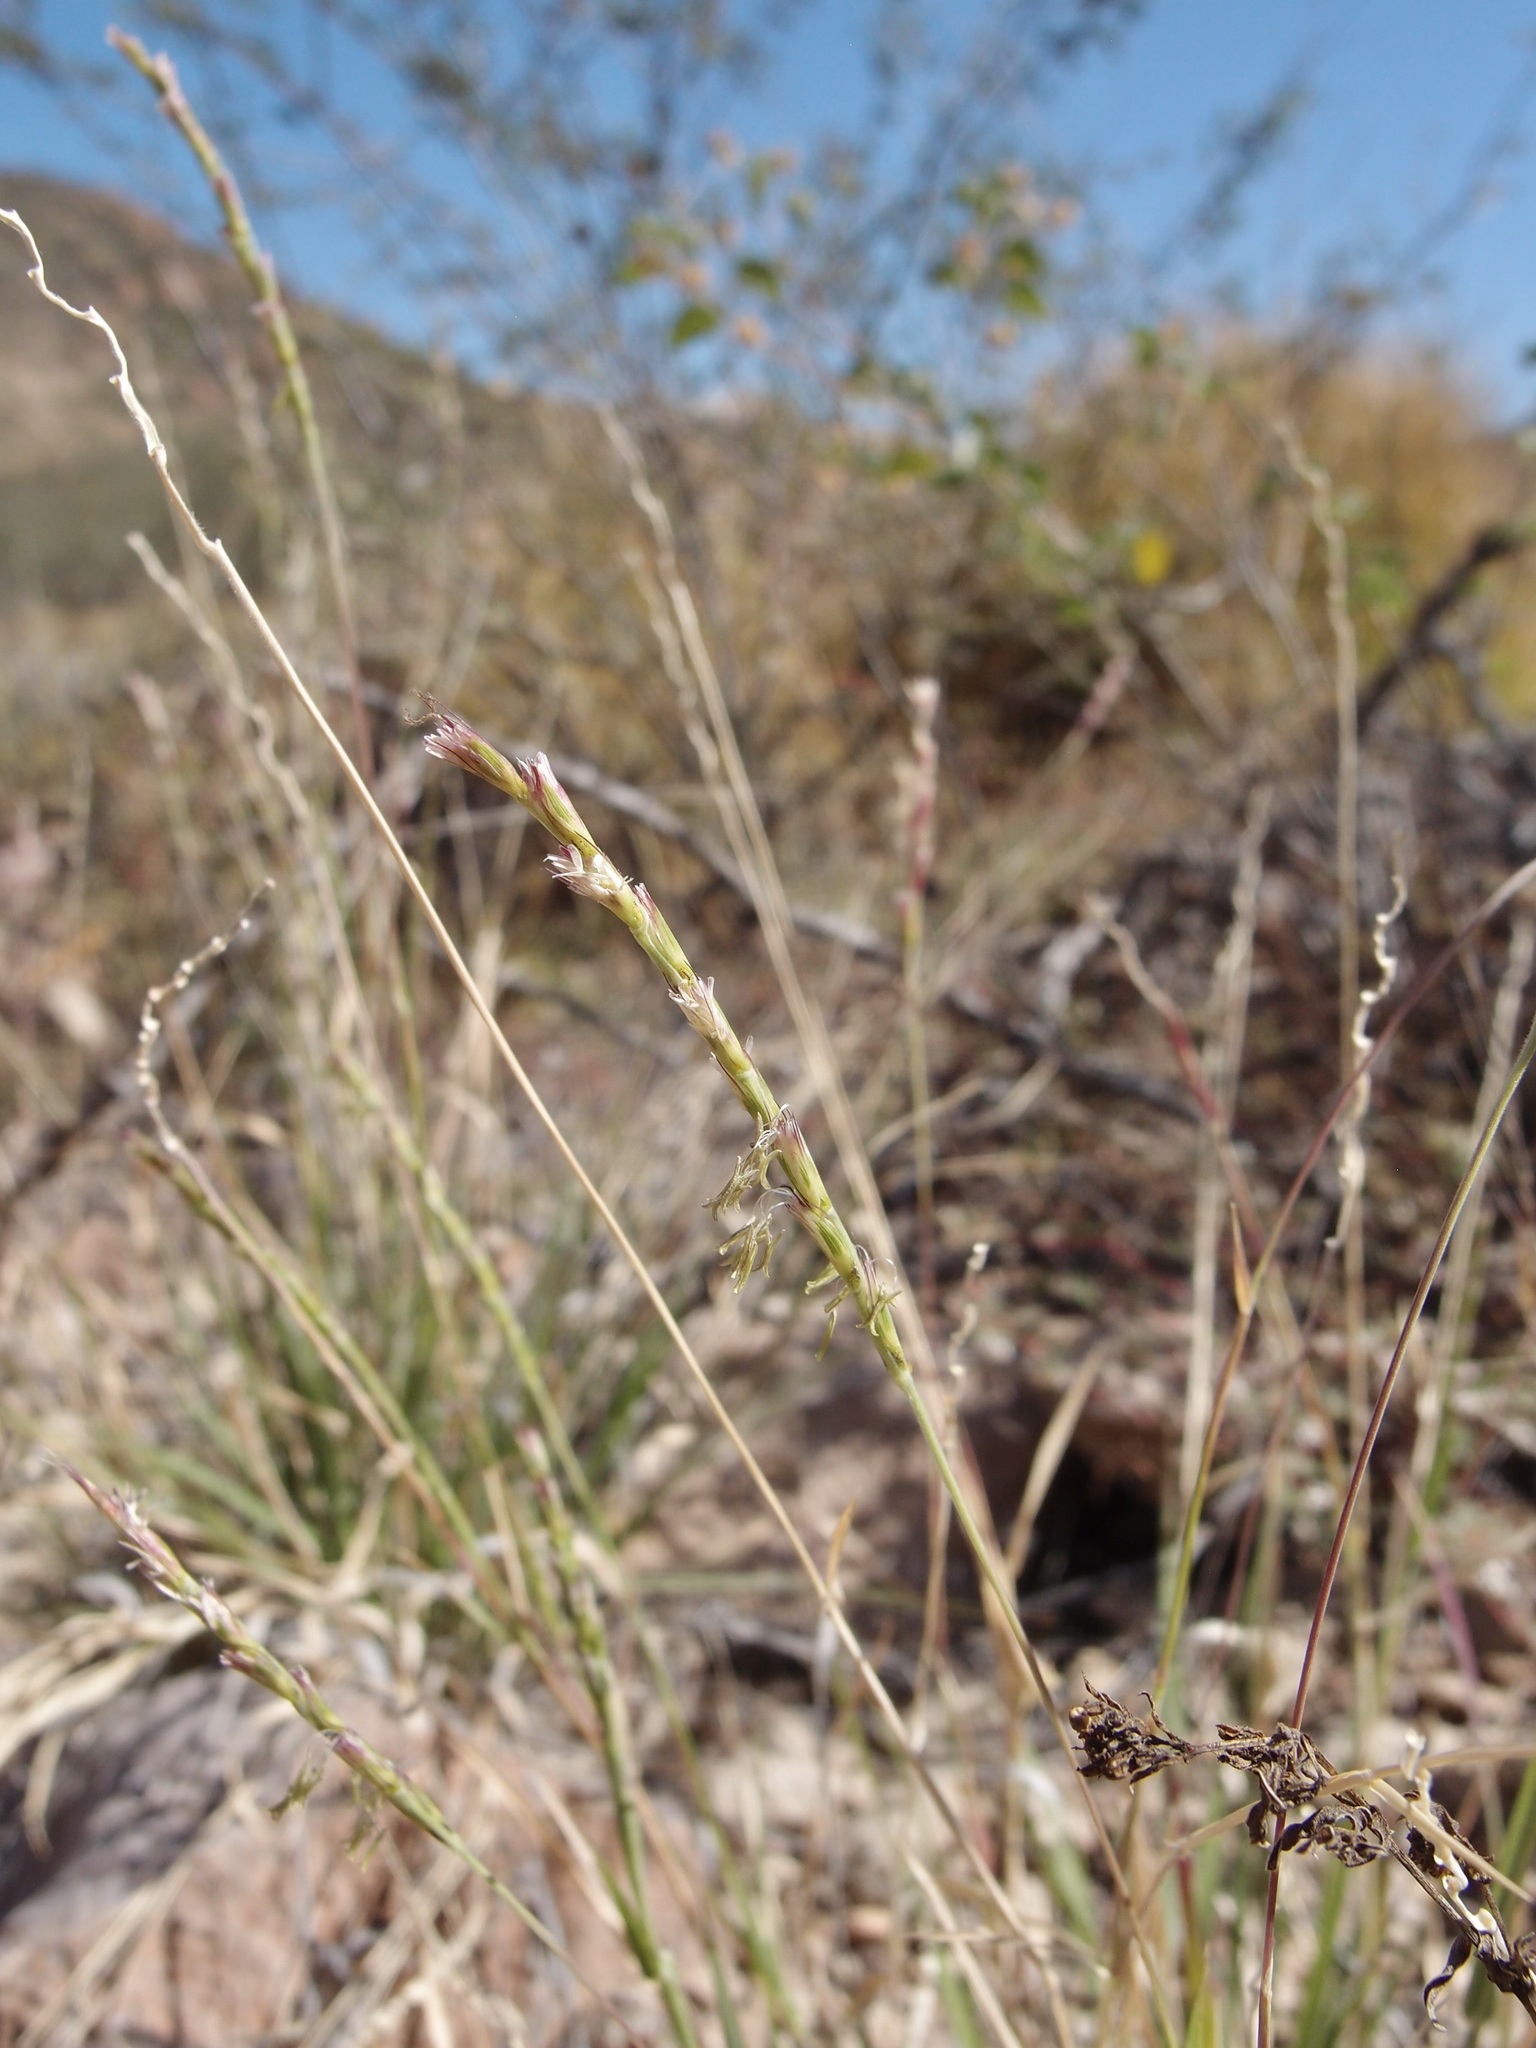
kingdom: Plantae
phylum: Tracheophyta
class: Liliopsida
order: Poales
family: Poaceae
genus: Hilaria
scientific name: Hilaria belangeri
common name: Curly-mesquite
